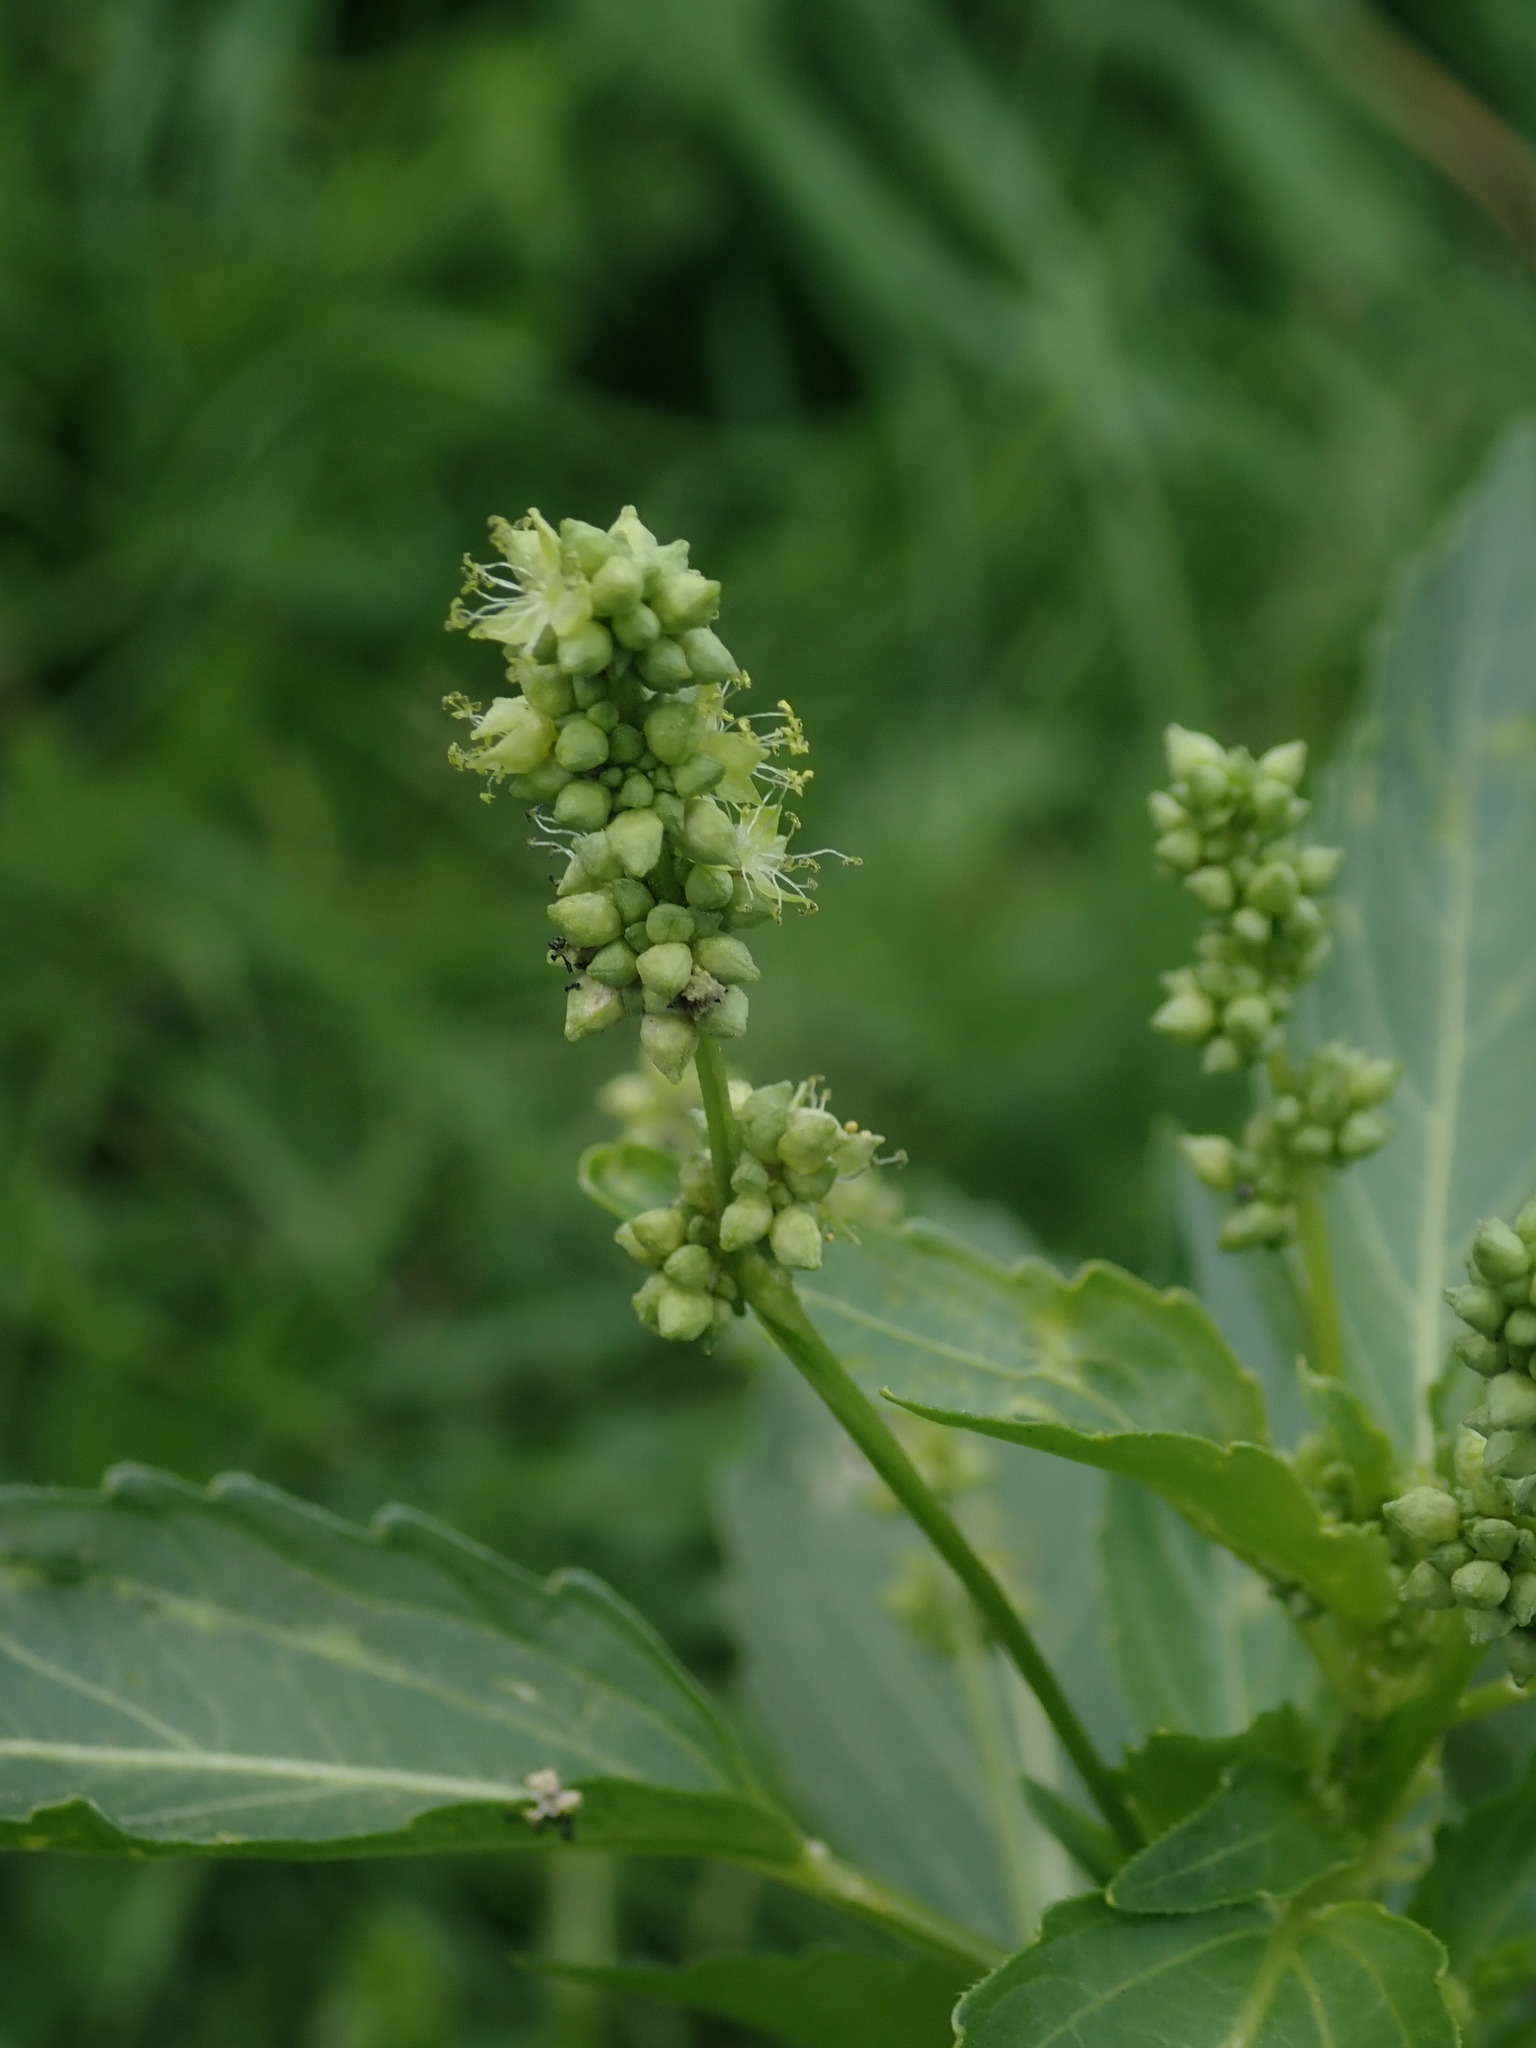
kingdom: Plantae
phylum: Tracheophyta
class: Magnoliopsida
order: Malpighiales
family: Euphorbiaceae
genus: Mercurialis
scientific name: Mercurialis annua
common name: Annual mercury
